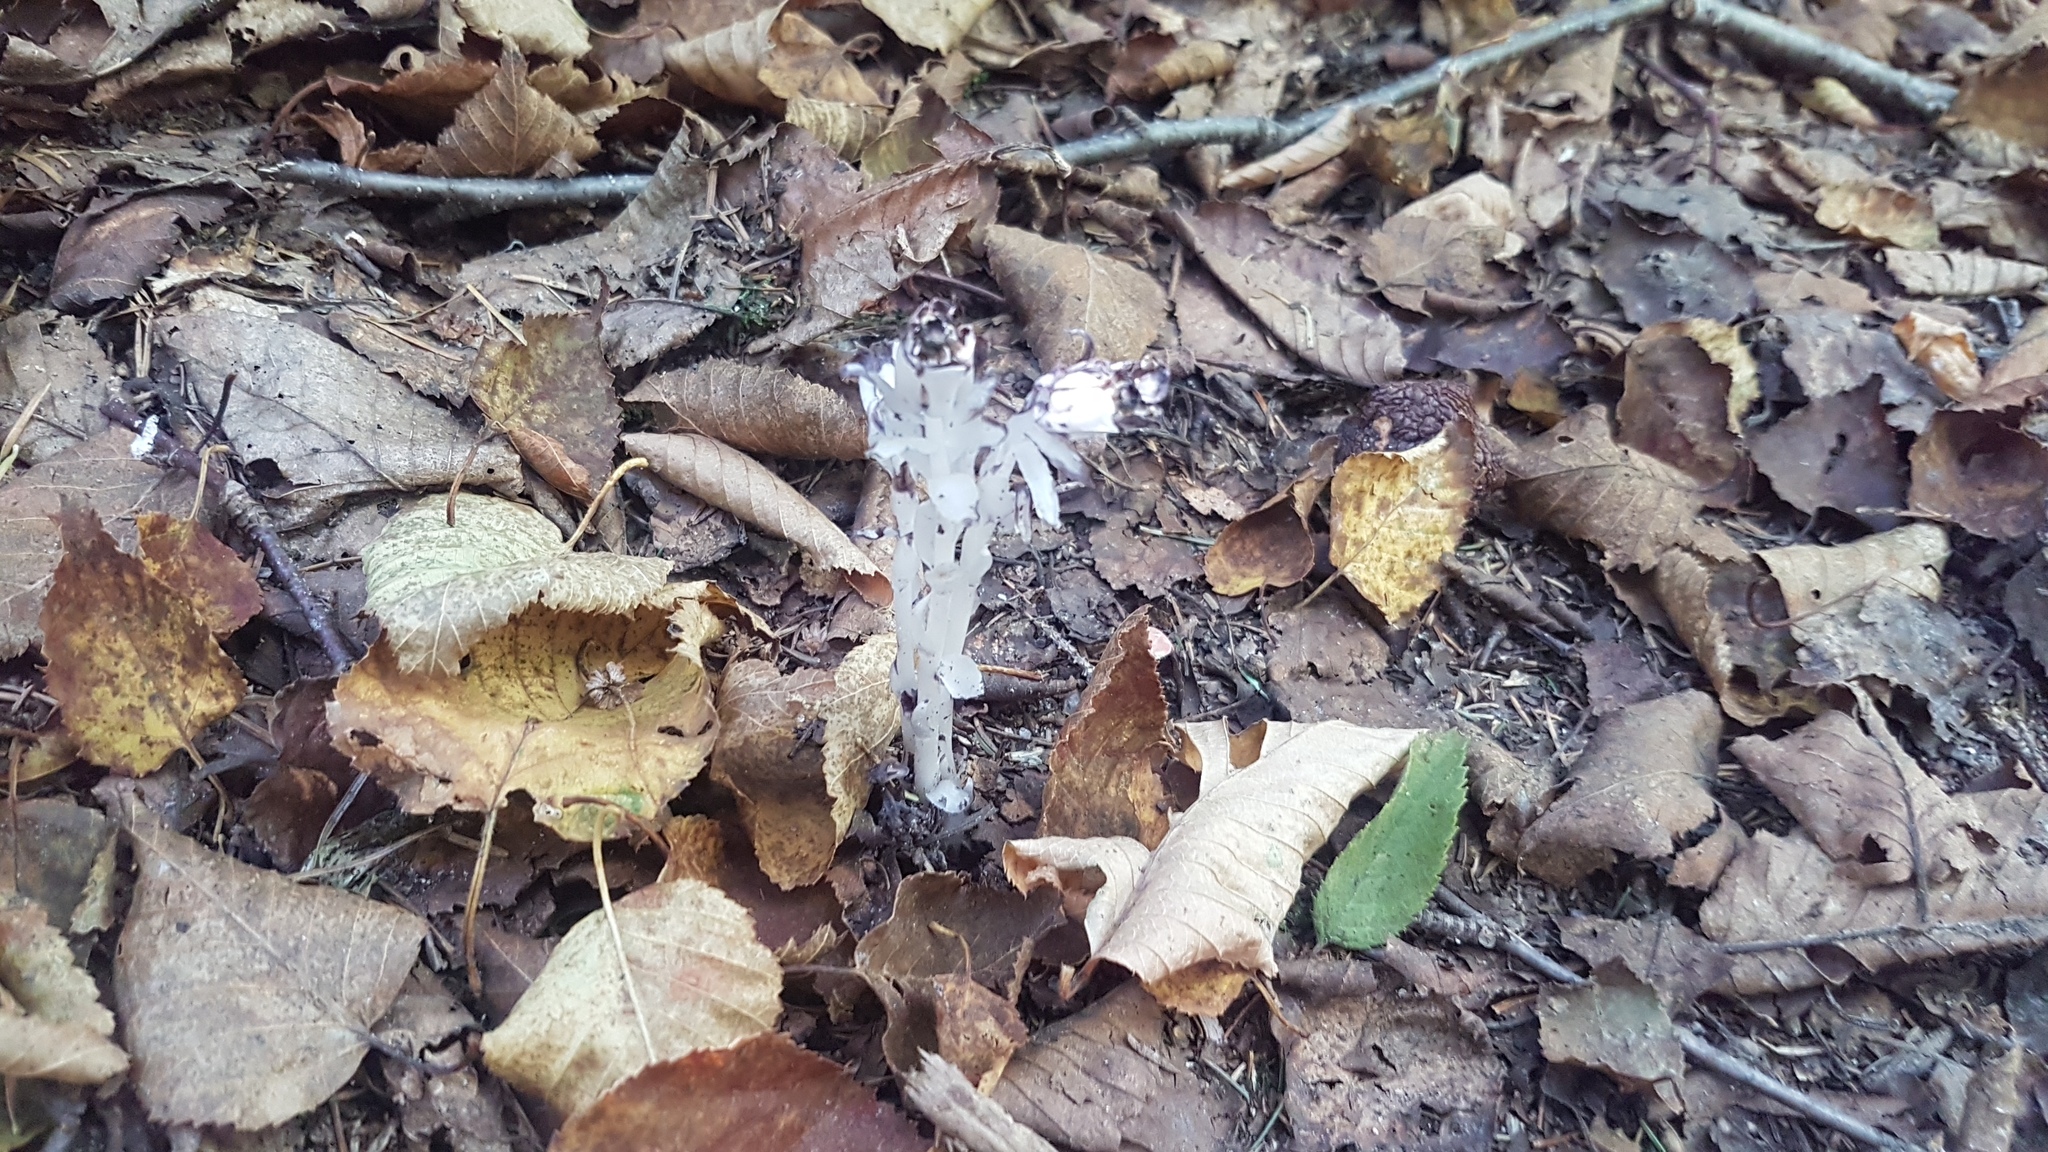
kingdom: Plantae
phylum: Tracheophyta
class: Magnoliopsida
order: Ericales
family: Ericaceae
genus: Monotropa
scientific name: Monotropa uniflora
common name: Convulsion root
